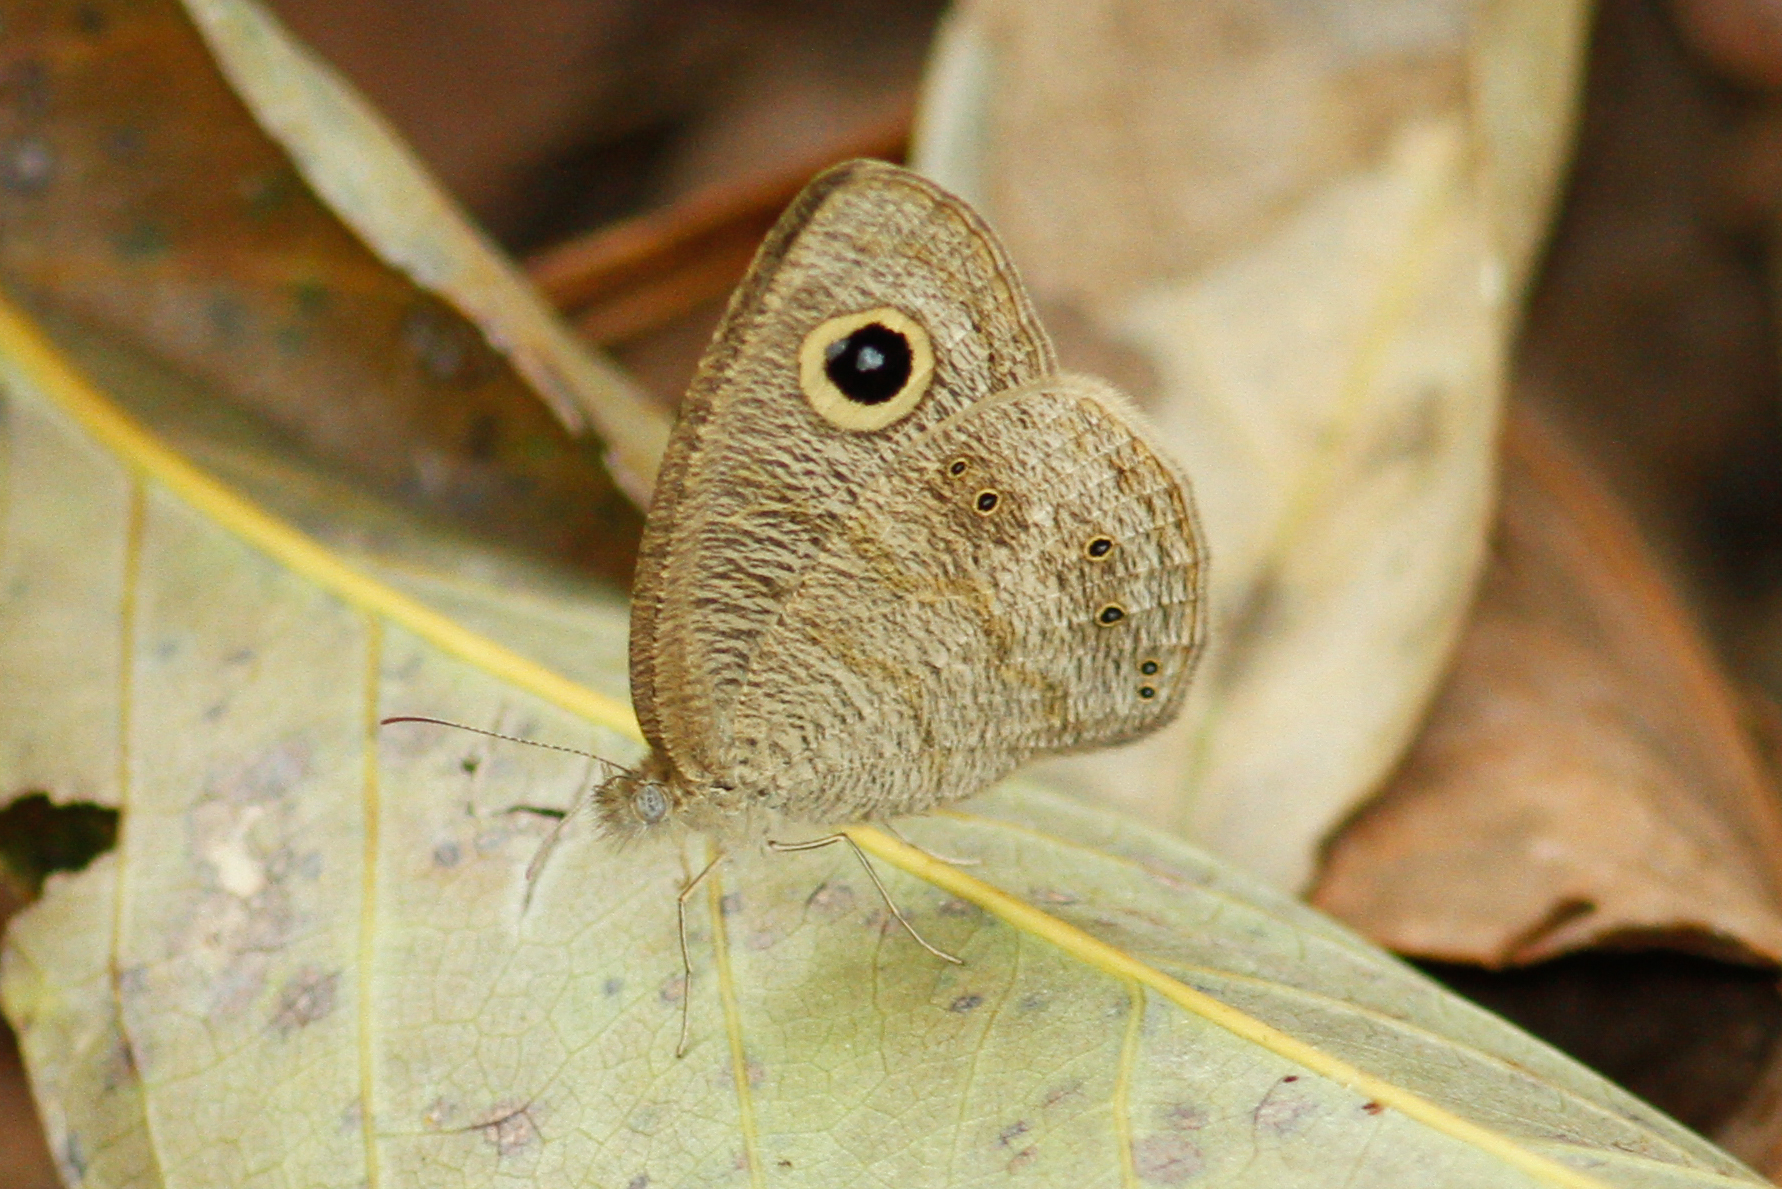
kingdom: Animalia
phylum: Arthropoda
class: Insecta
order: Lepidoptera
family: Nymphalidae
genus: Ypthima
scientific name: Ypthima nebulosa
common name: Malayan fivering
